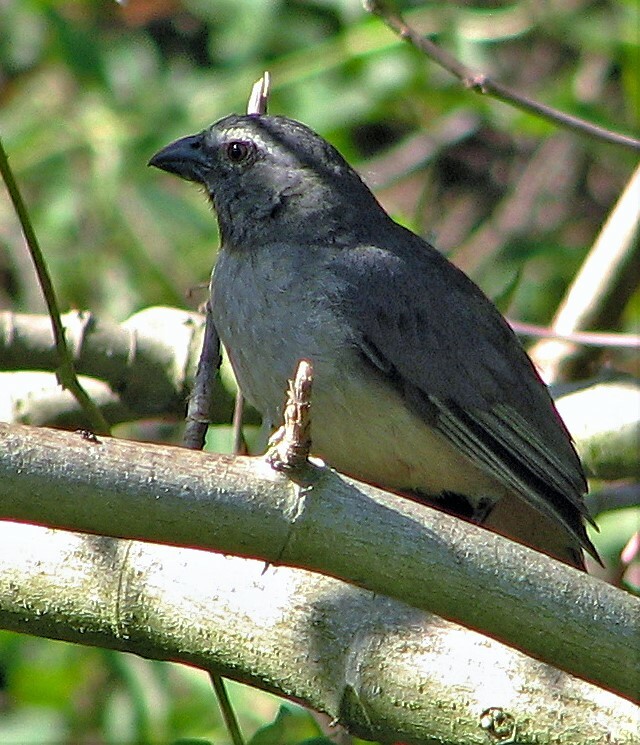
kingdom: Animalia
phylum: Chordata
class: Aves
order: Passeriformes
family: Thraupidae
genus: Saltator
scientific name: Saltator coerulescens
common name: Grayish saltator
